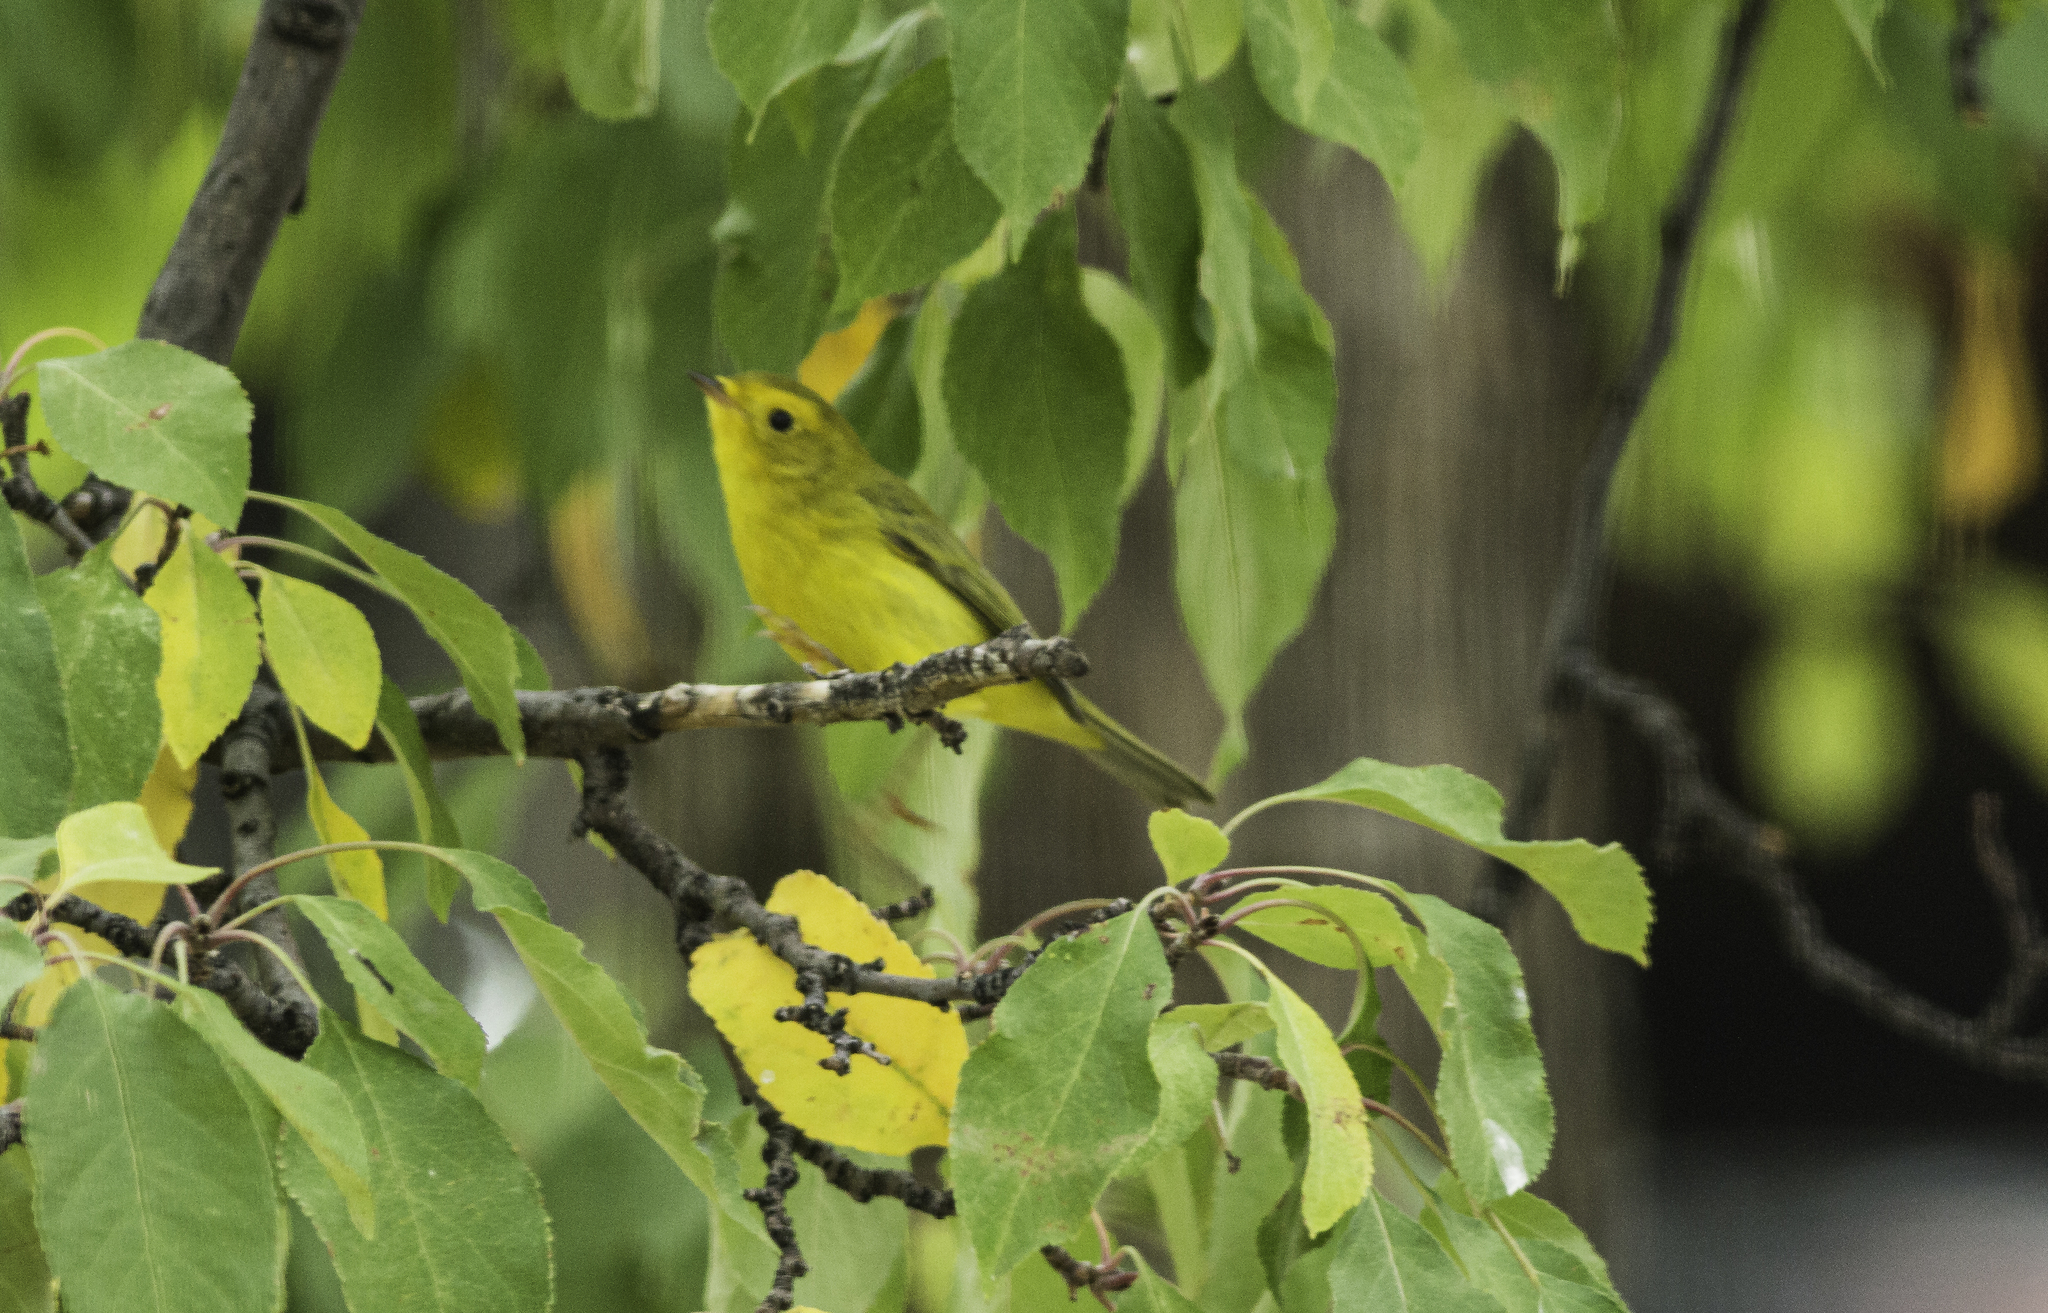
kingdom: Animalia
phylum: Chordata
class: Aves
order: Passeriformes
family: Parulidae
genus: Cardellina
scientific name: Cardellina pusilla
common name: Wilson's warbler
